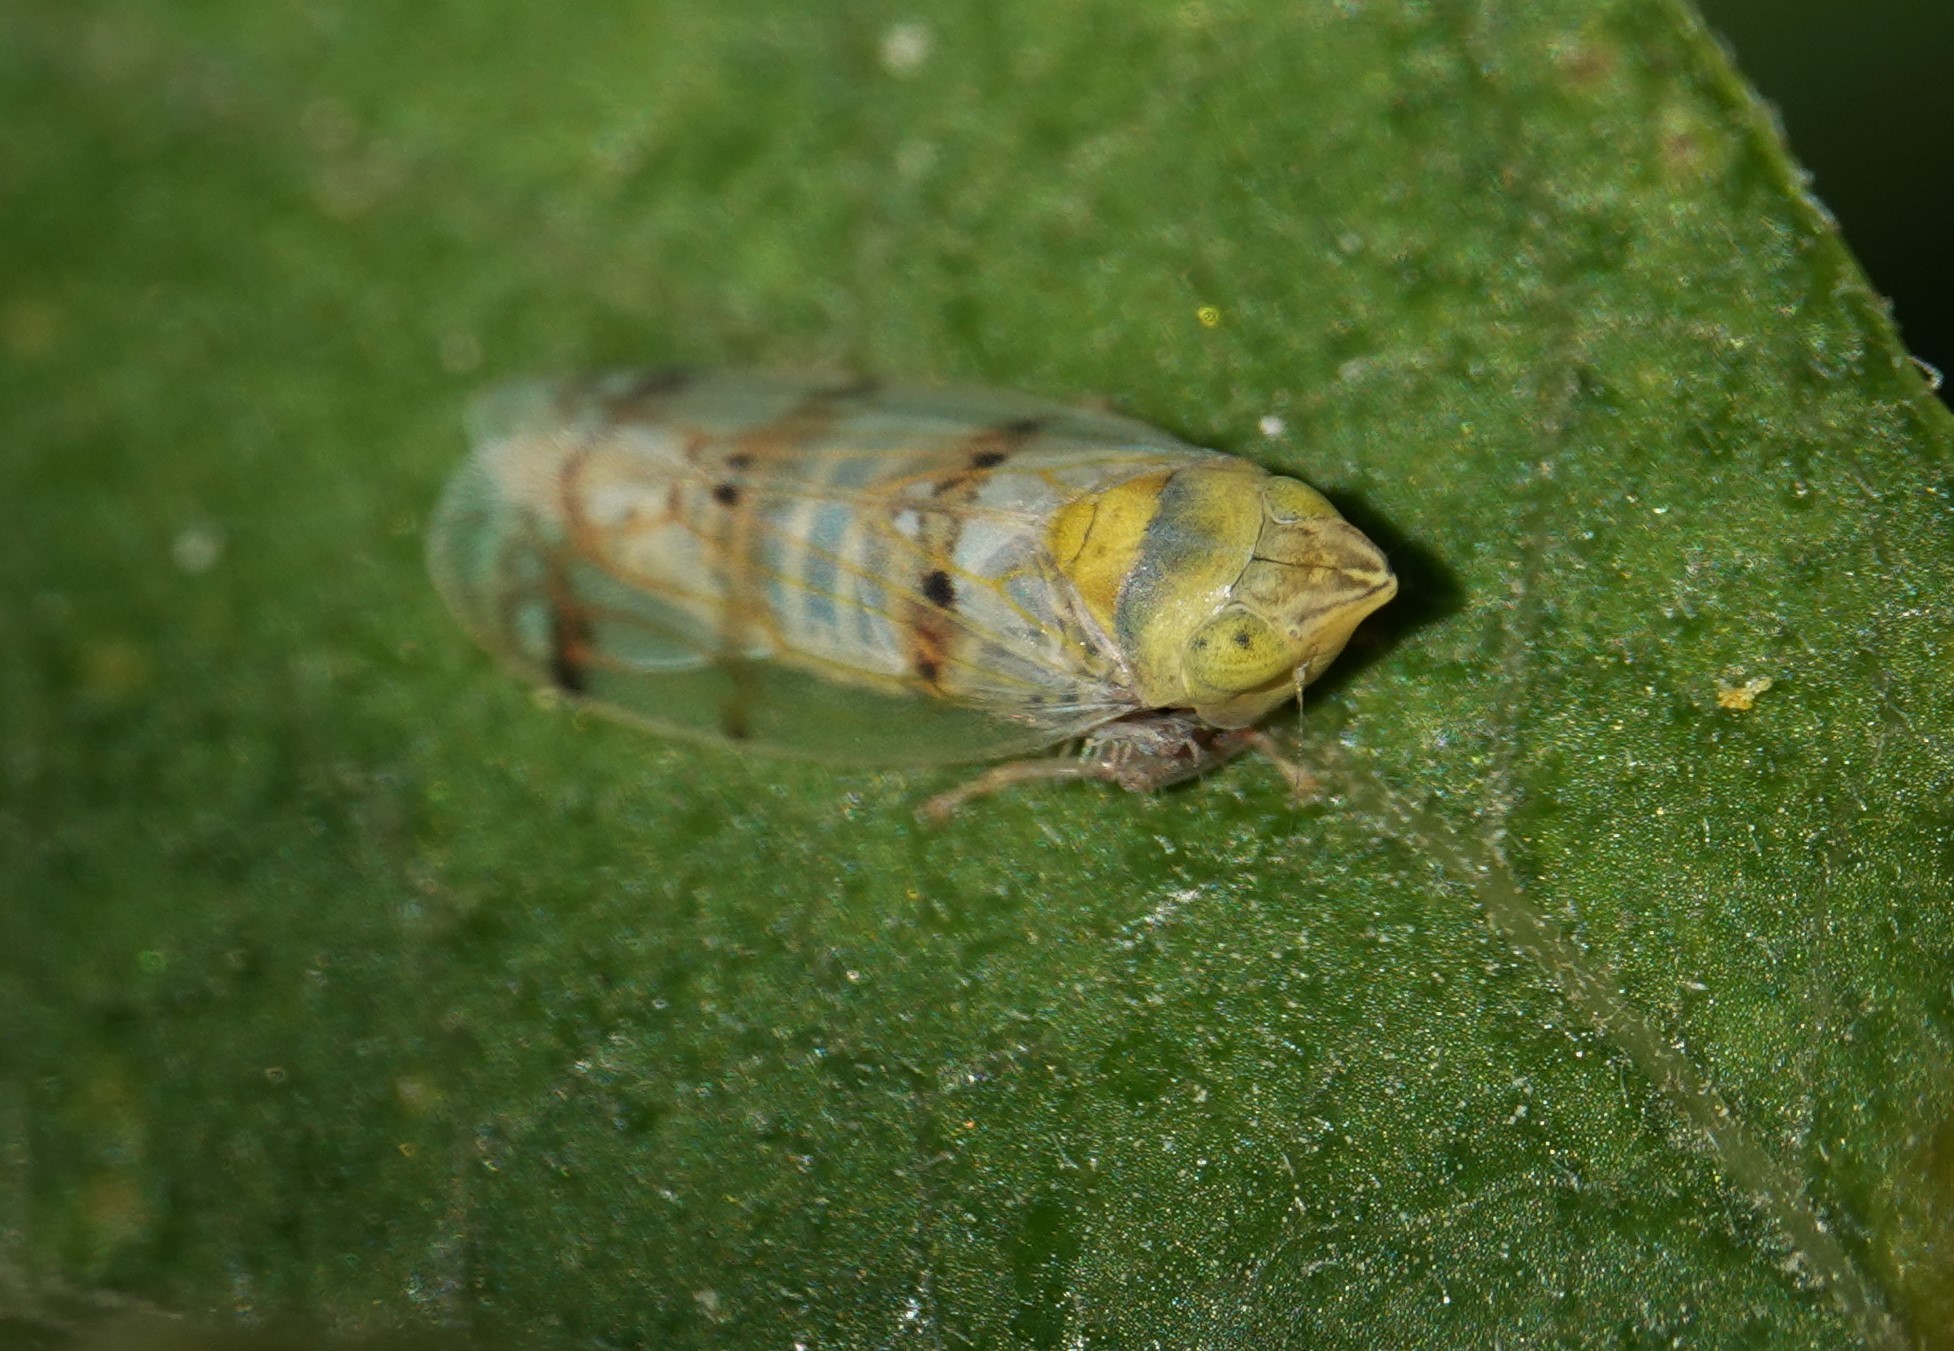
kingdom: Animalia
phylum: Arthropoda
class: Insecta
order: Hemiptera
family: Cicadellidae
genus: Japananus
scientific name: Japananus hyalinus
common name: The japanese maple leafhopper
